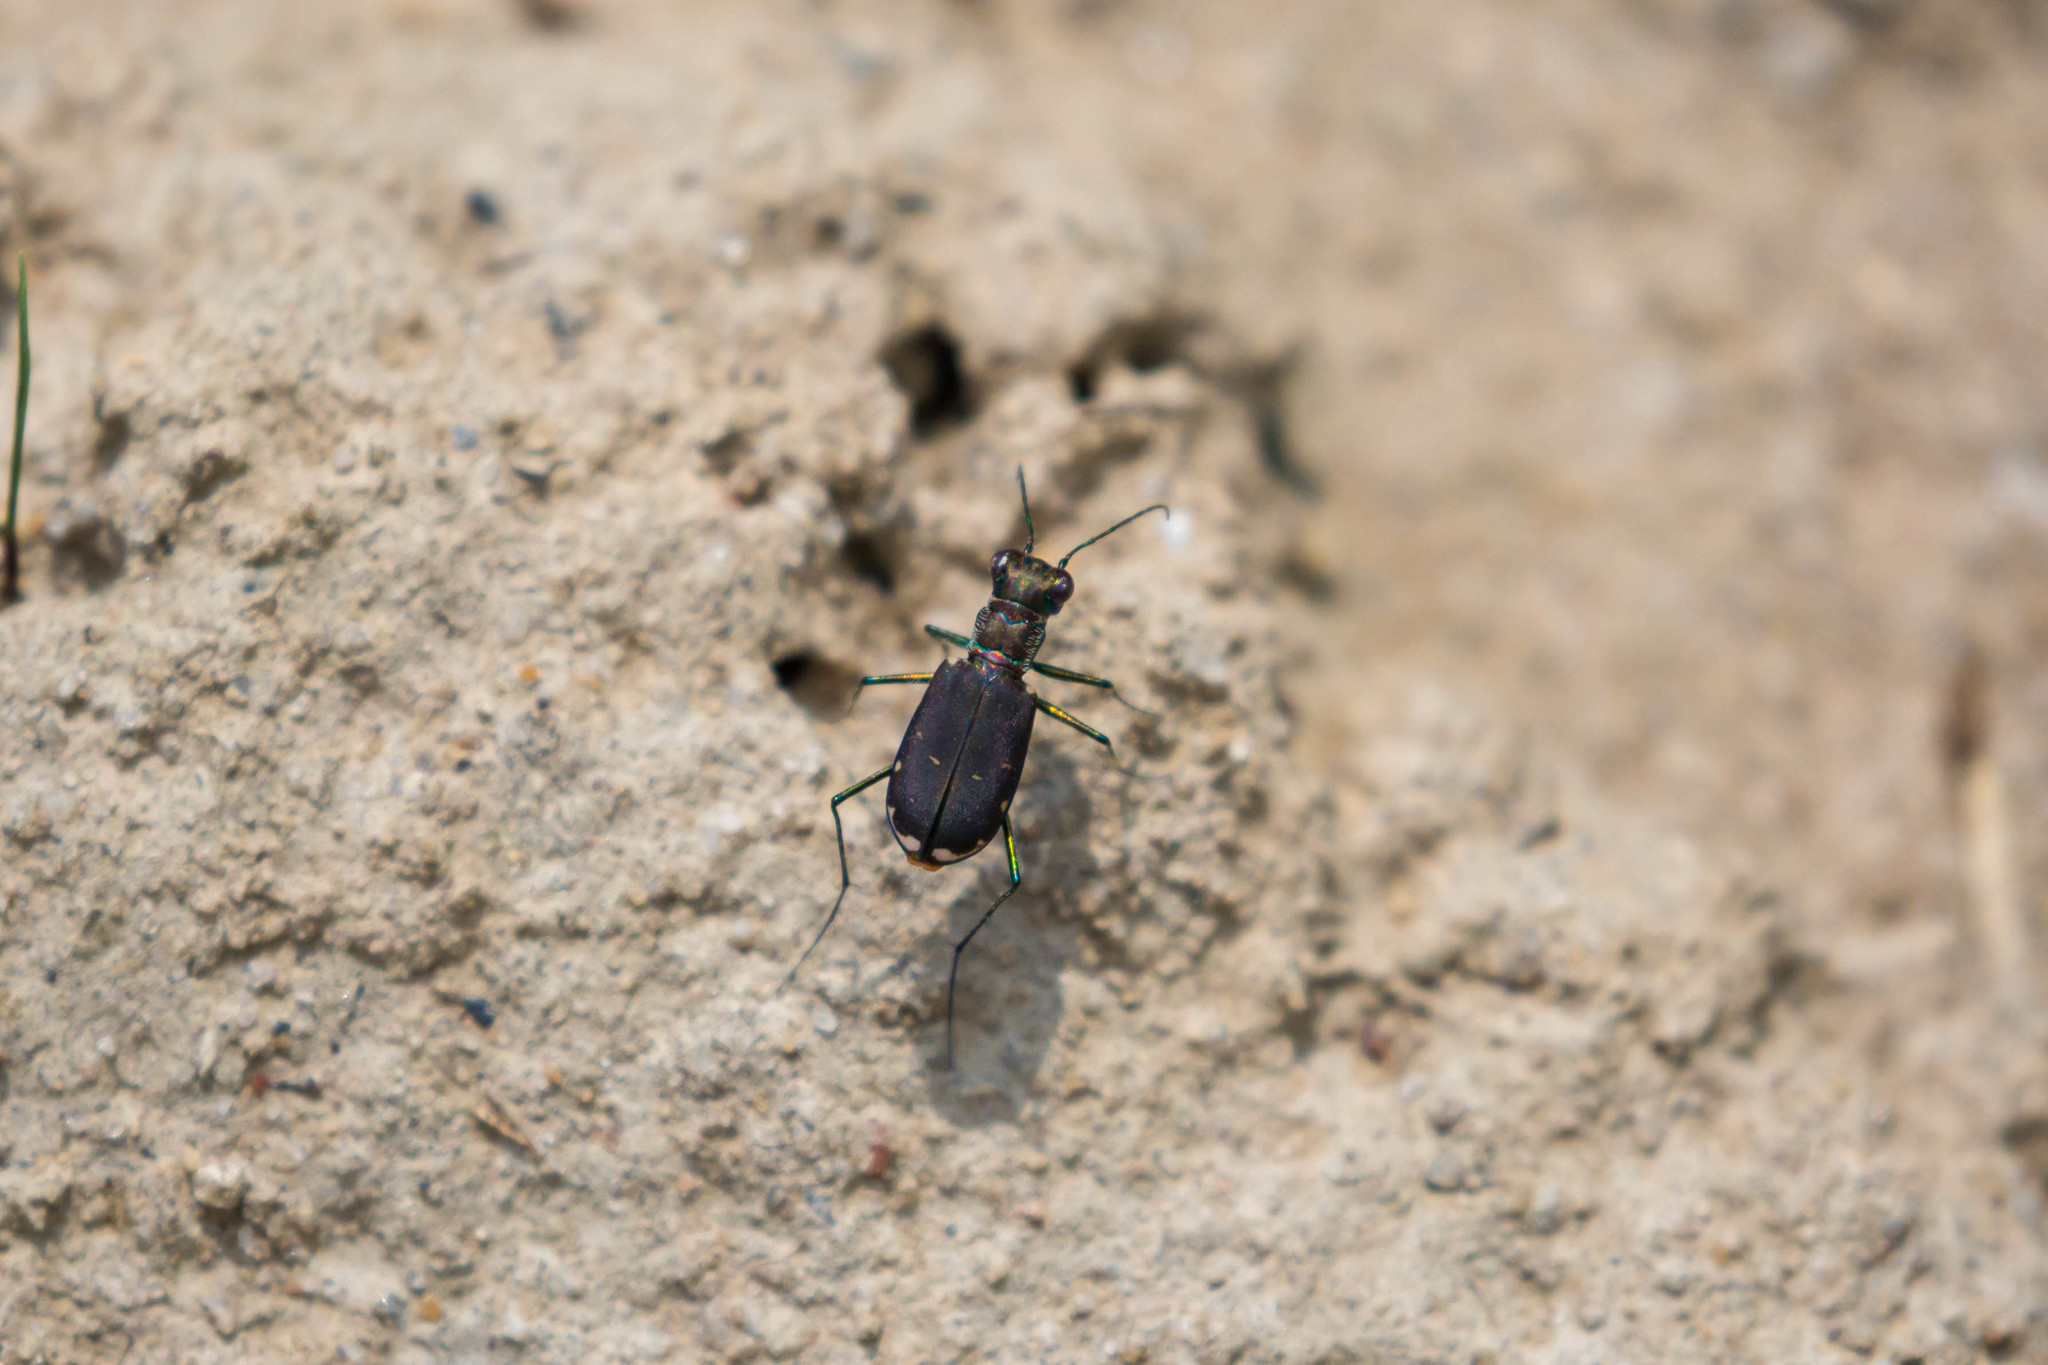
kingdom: Animalia
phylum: Arthropoda
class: Insecta
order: Coleoptera
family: Carabidae
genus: Cicindela
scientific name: Cicindela rufiventris
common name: Eastern red-bellied tiger beetle
